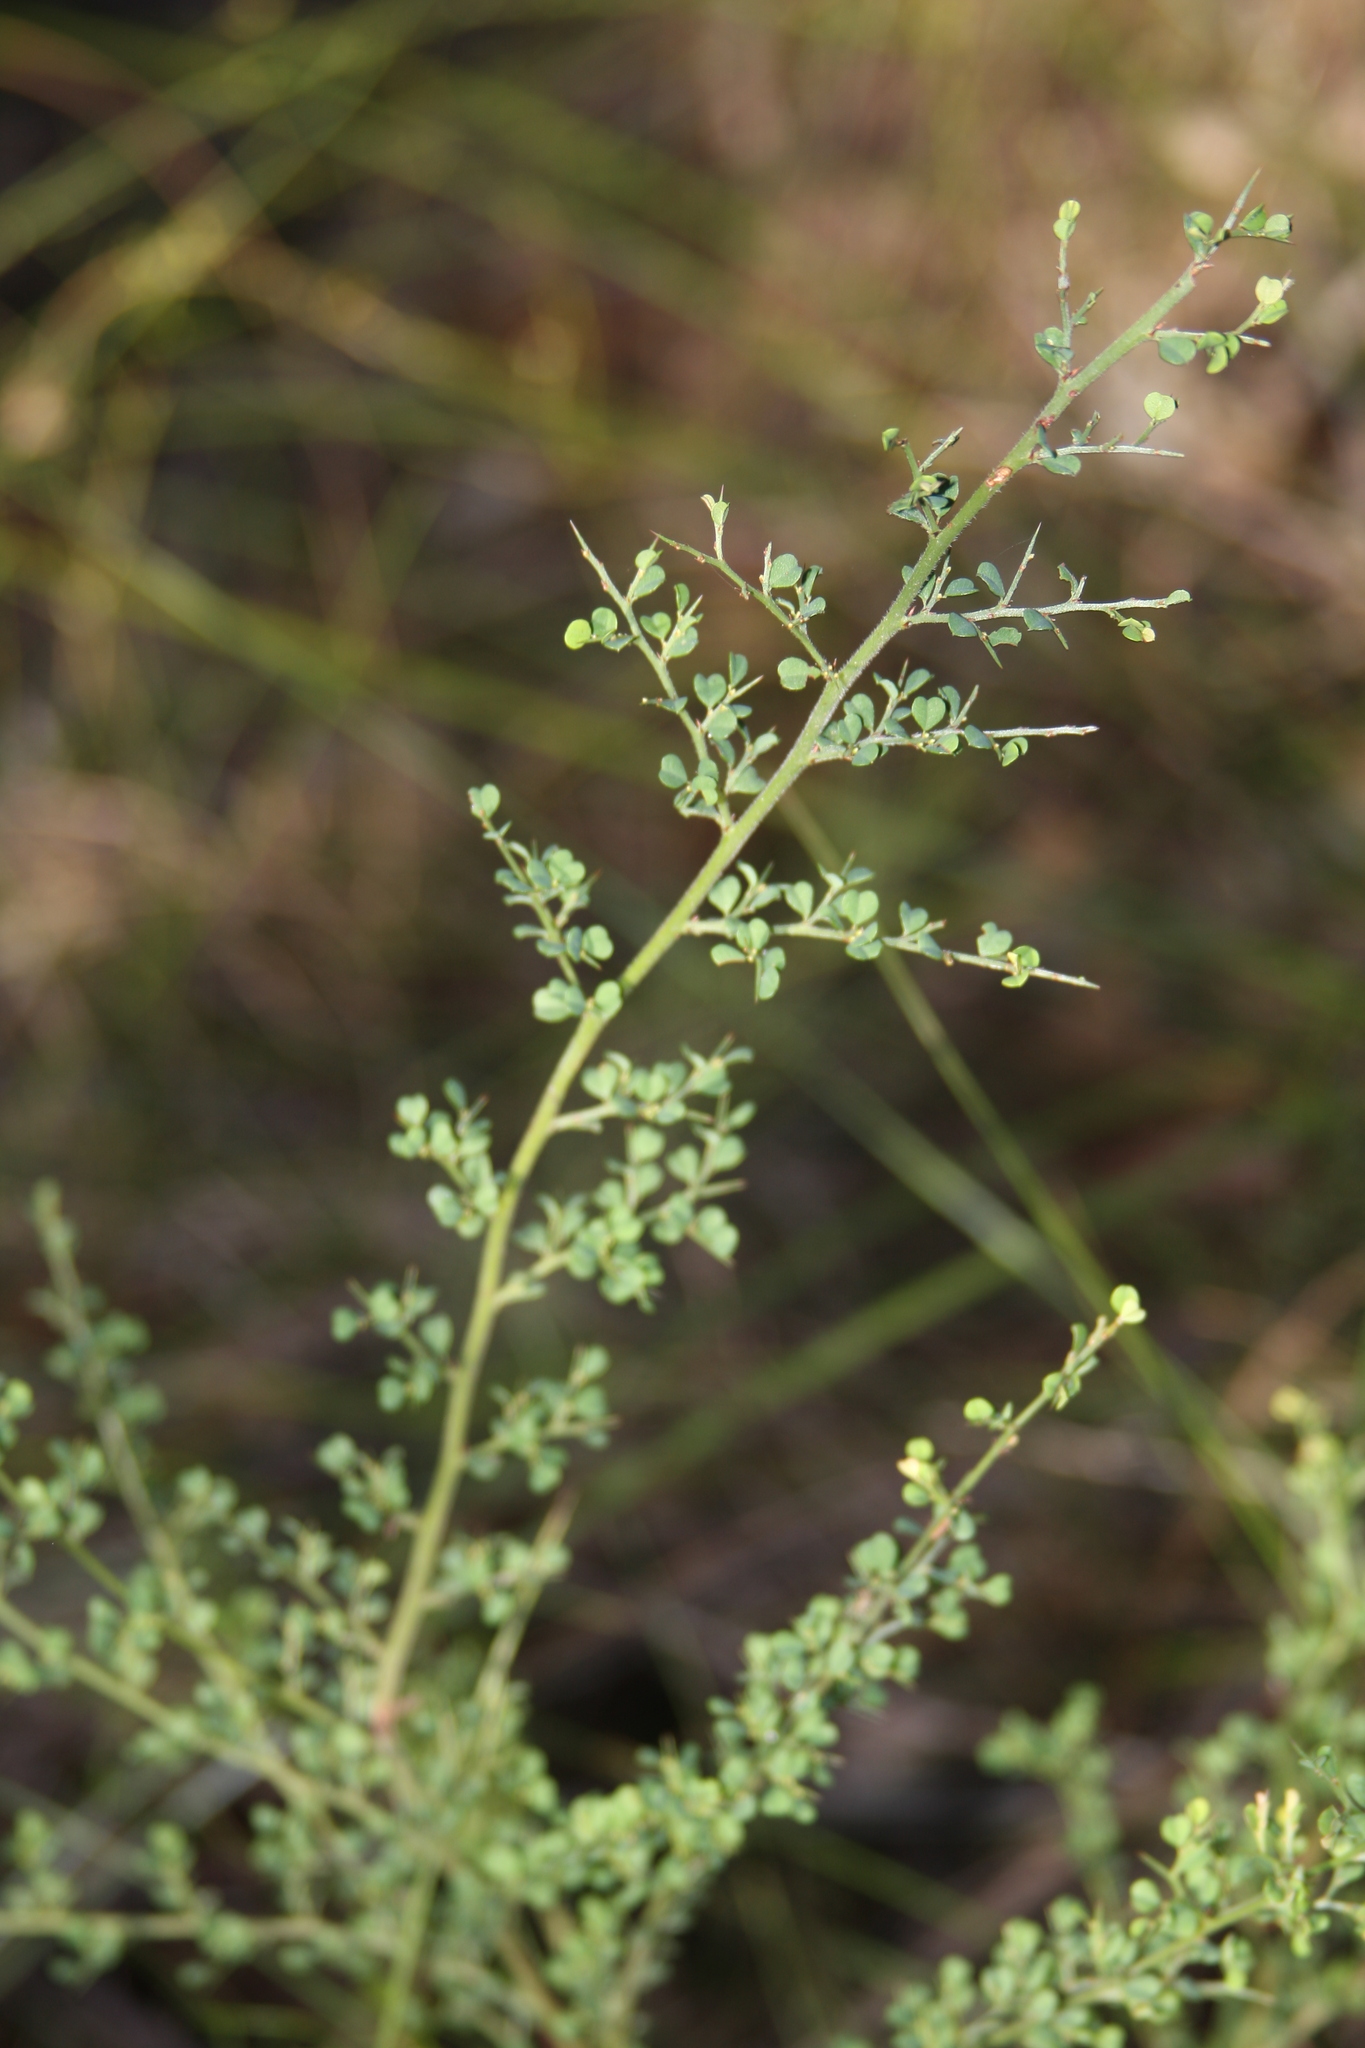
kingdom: Plantae
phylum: Tracheophyta
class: Magnoliopsida
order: Fabales
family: Fabaceae
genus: Bossiaea
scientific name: Bossiaea obcordata
